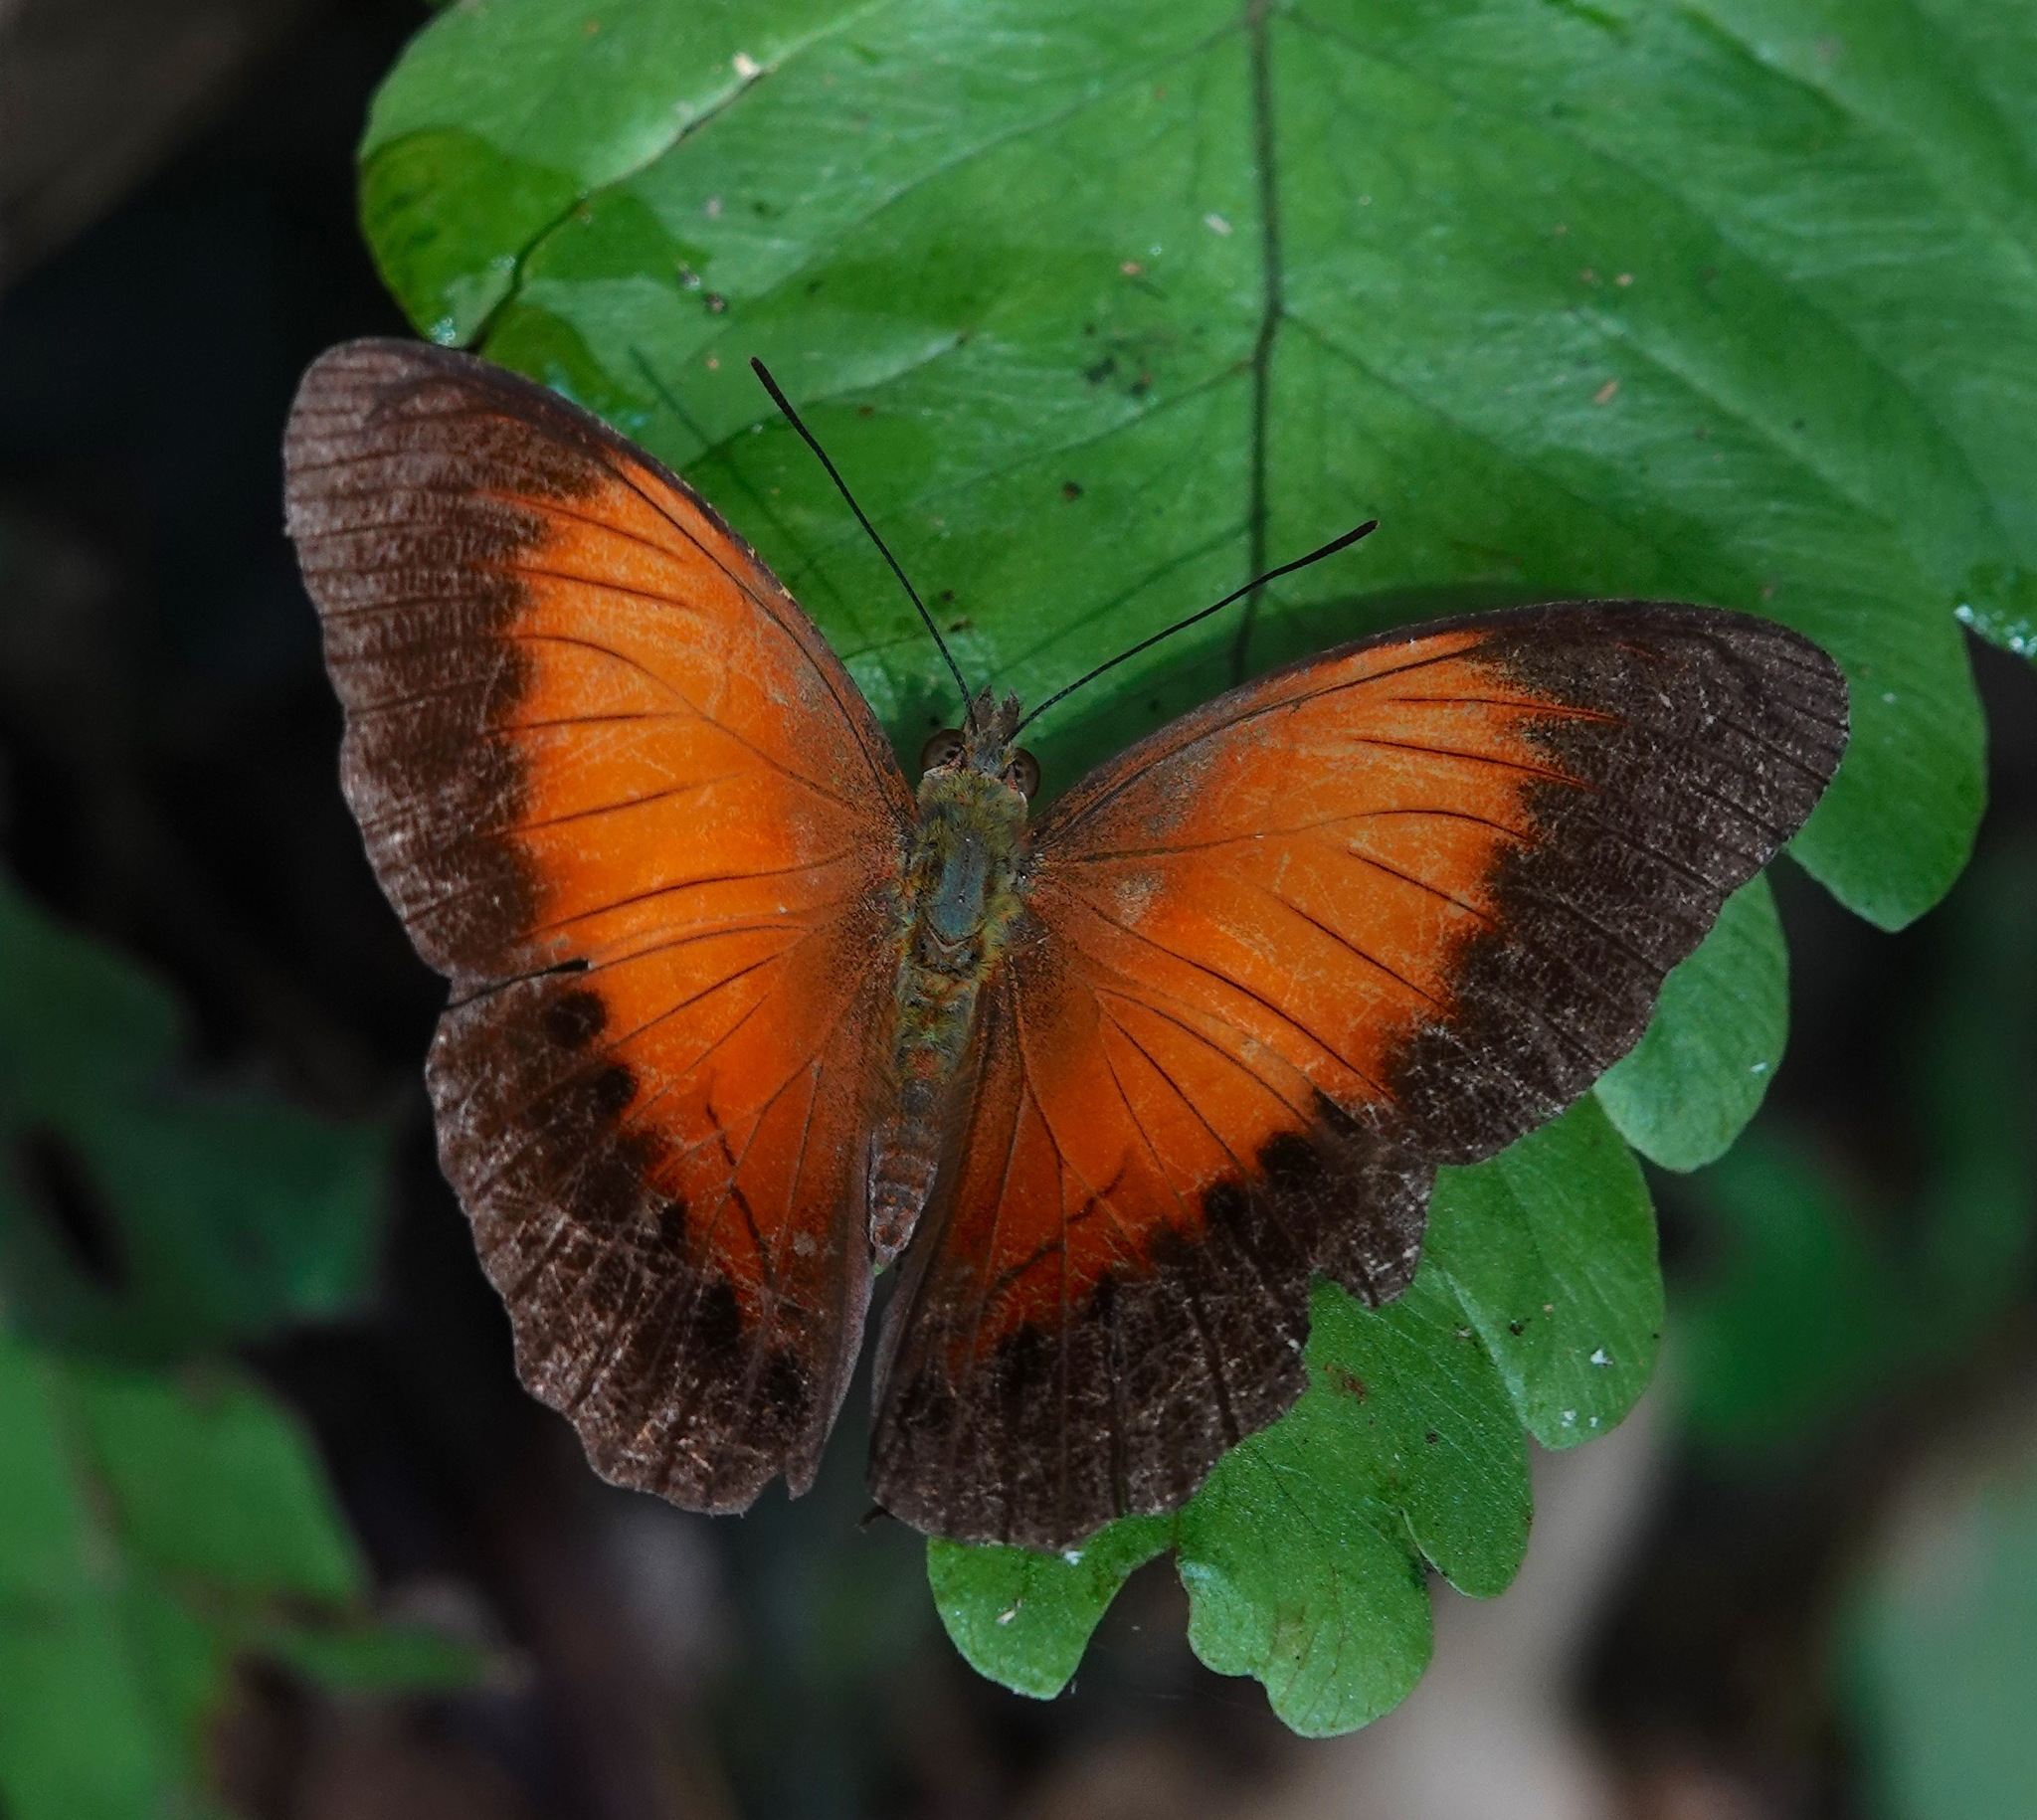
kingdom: Animalia
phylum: Arthropoda
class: Insecta
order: Lepidoptera
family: Nymphalidae
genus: Cirrochroa
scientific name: Cirrochroa clagia
